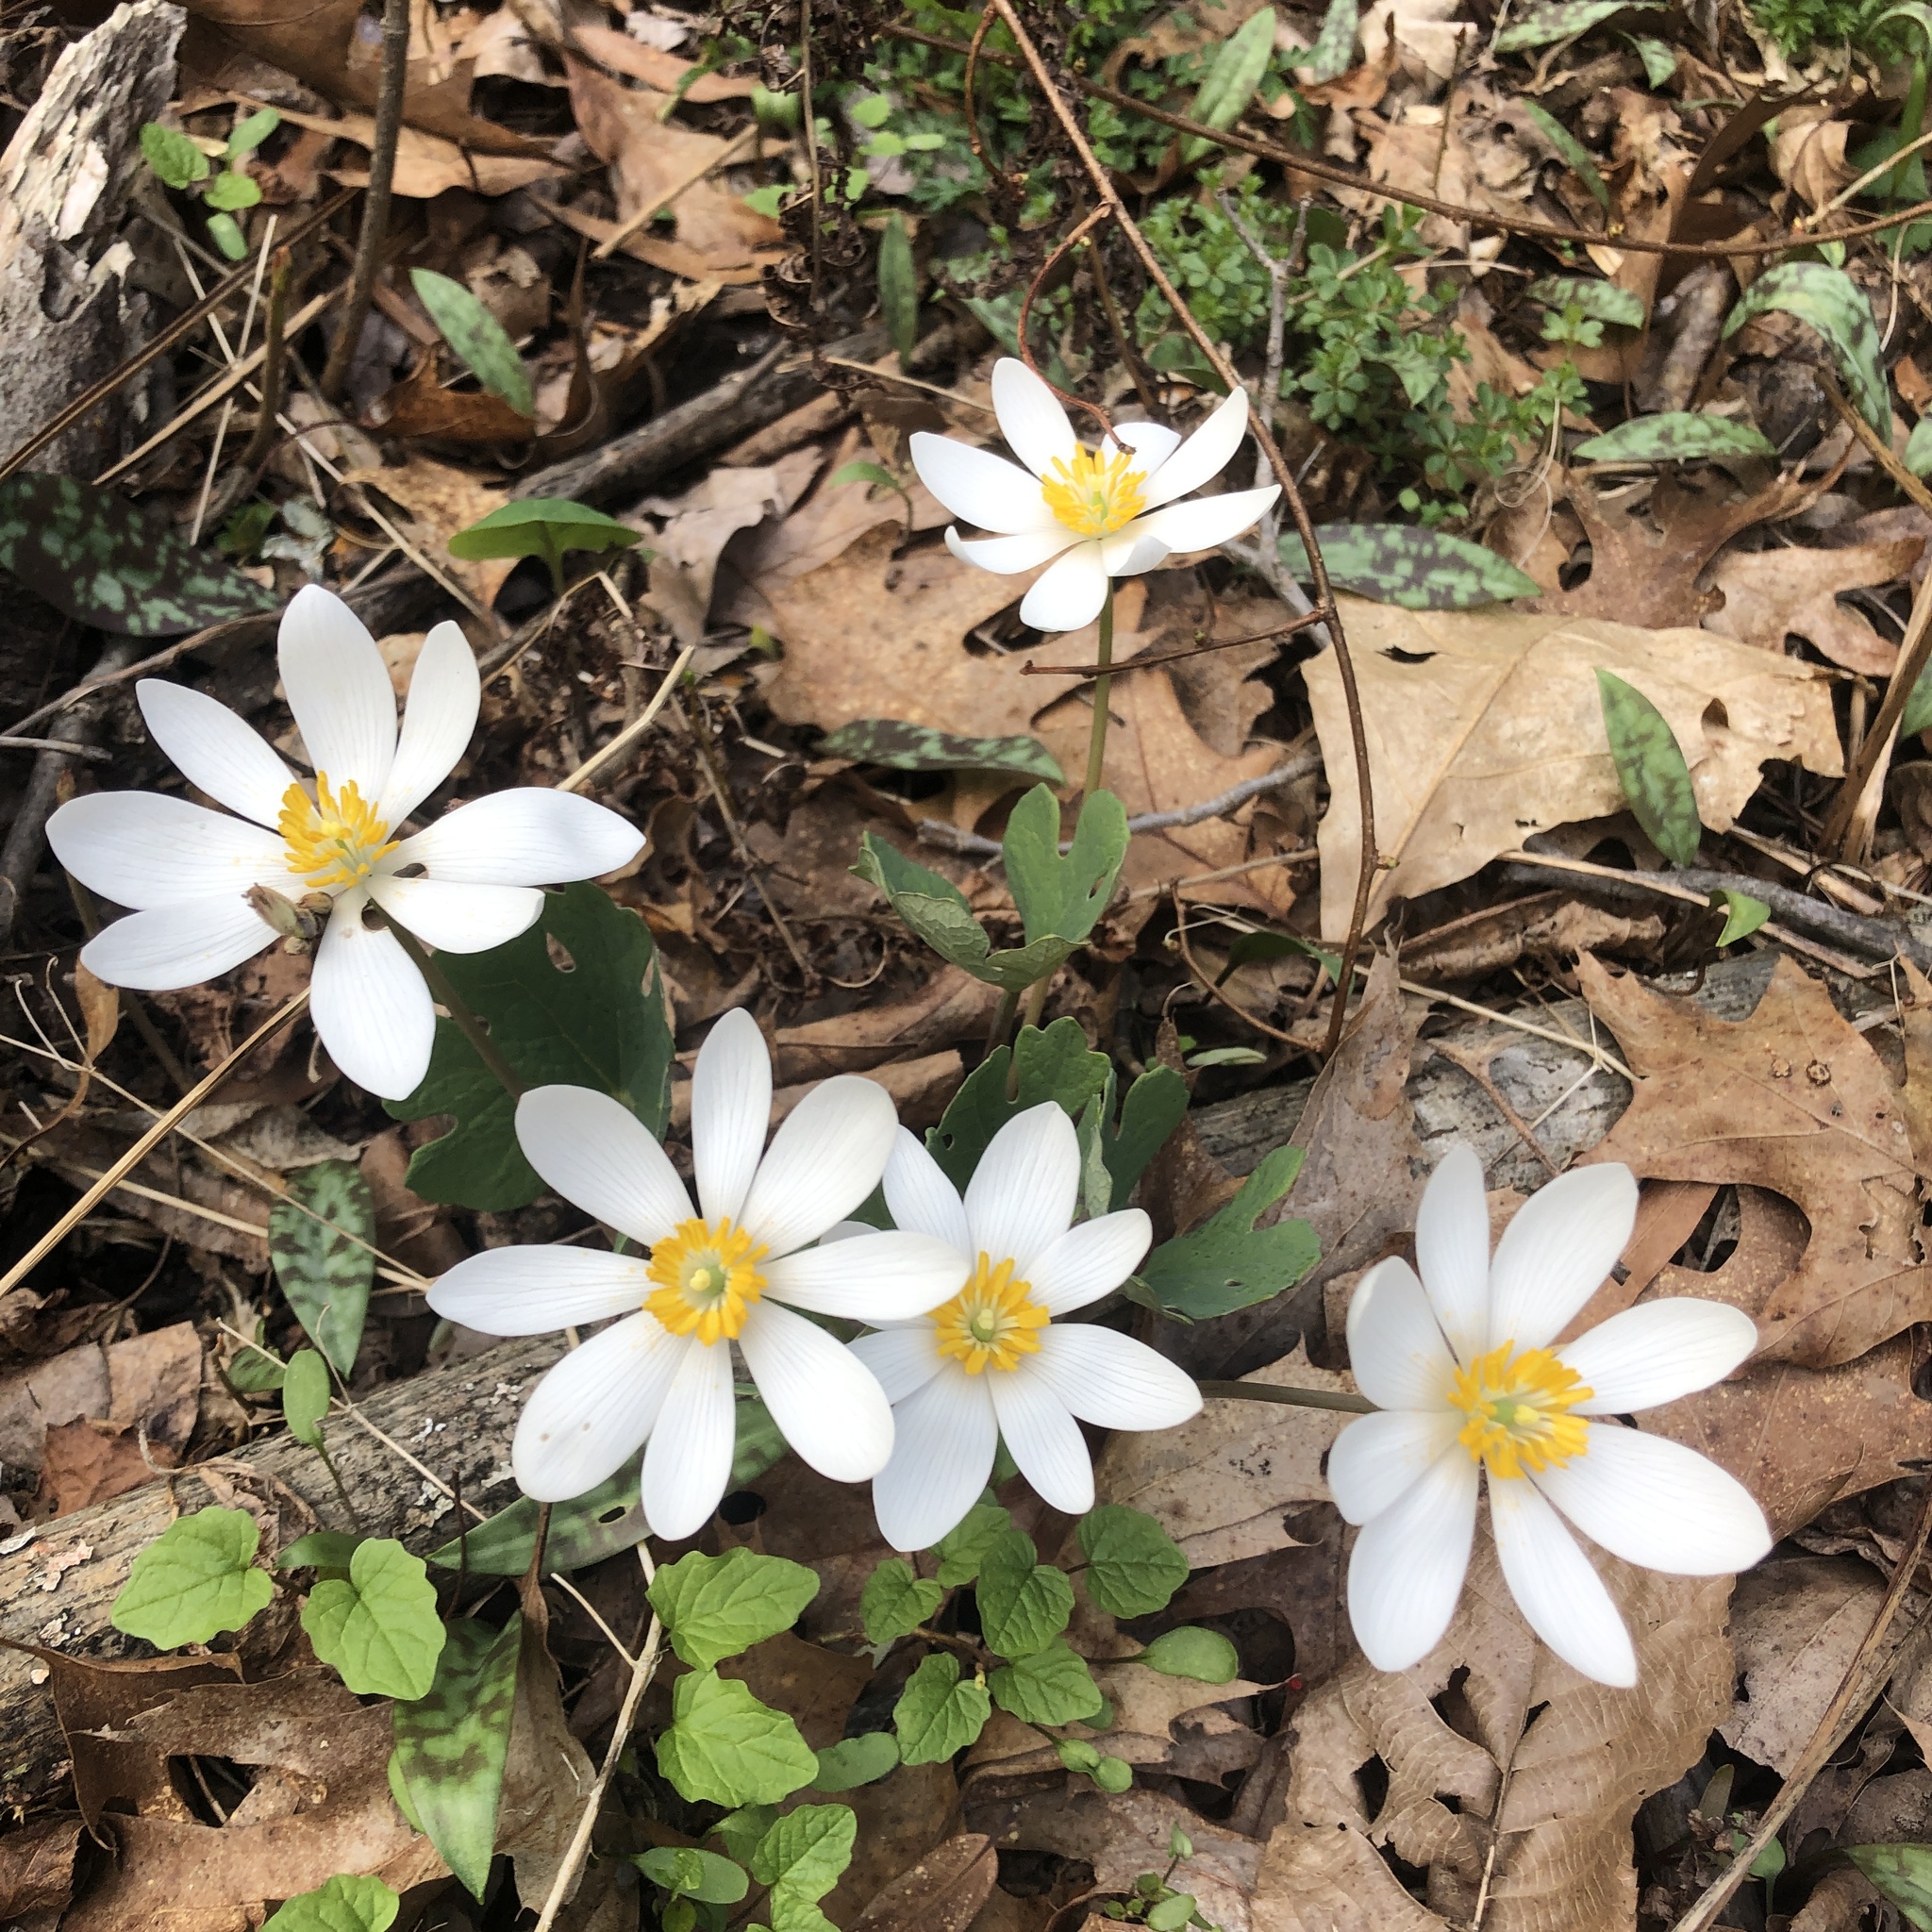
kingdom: Plantae
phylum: Tracheophyta
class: Magnoliopsida
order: Ranunculales
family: Papaveraceae
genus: Sanguinaria
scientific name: Sanguinaria canadensis
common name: Bloodroot
